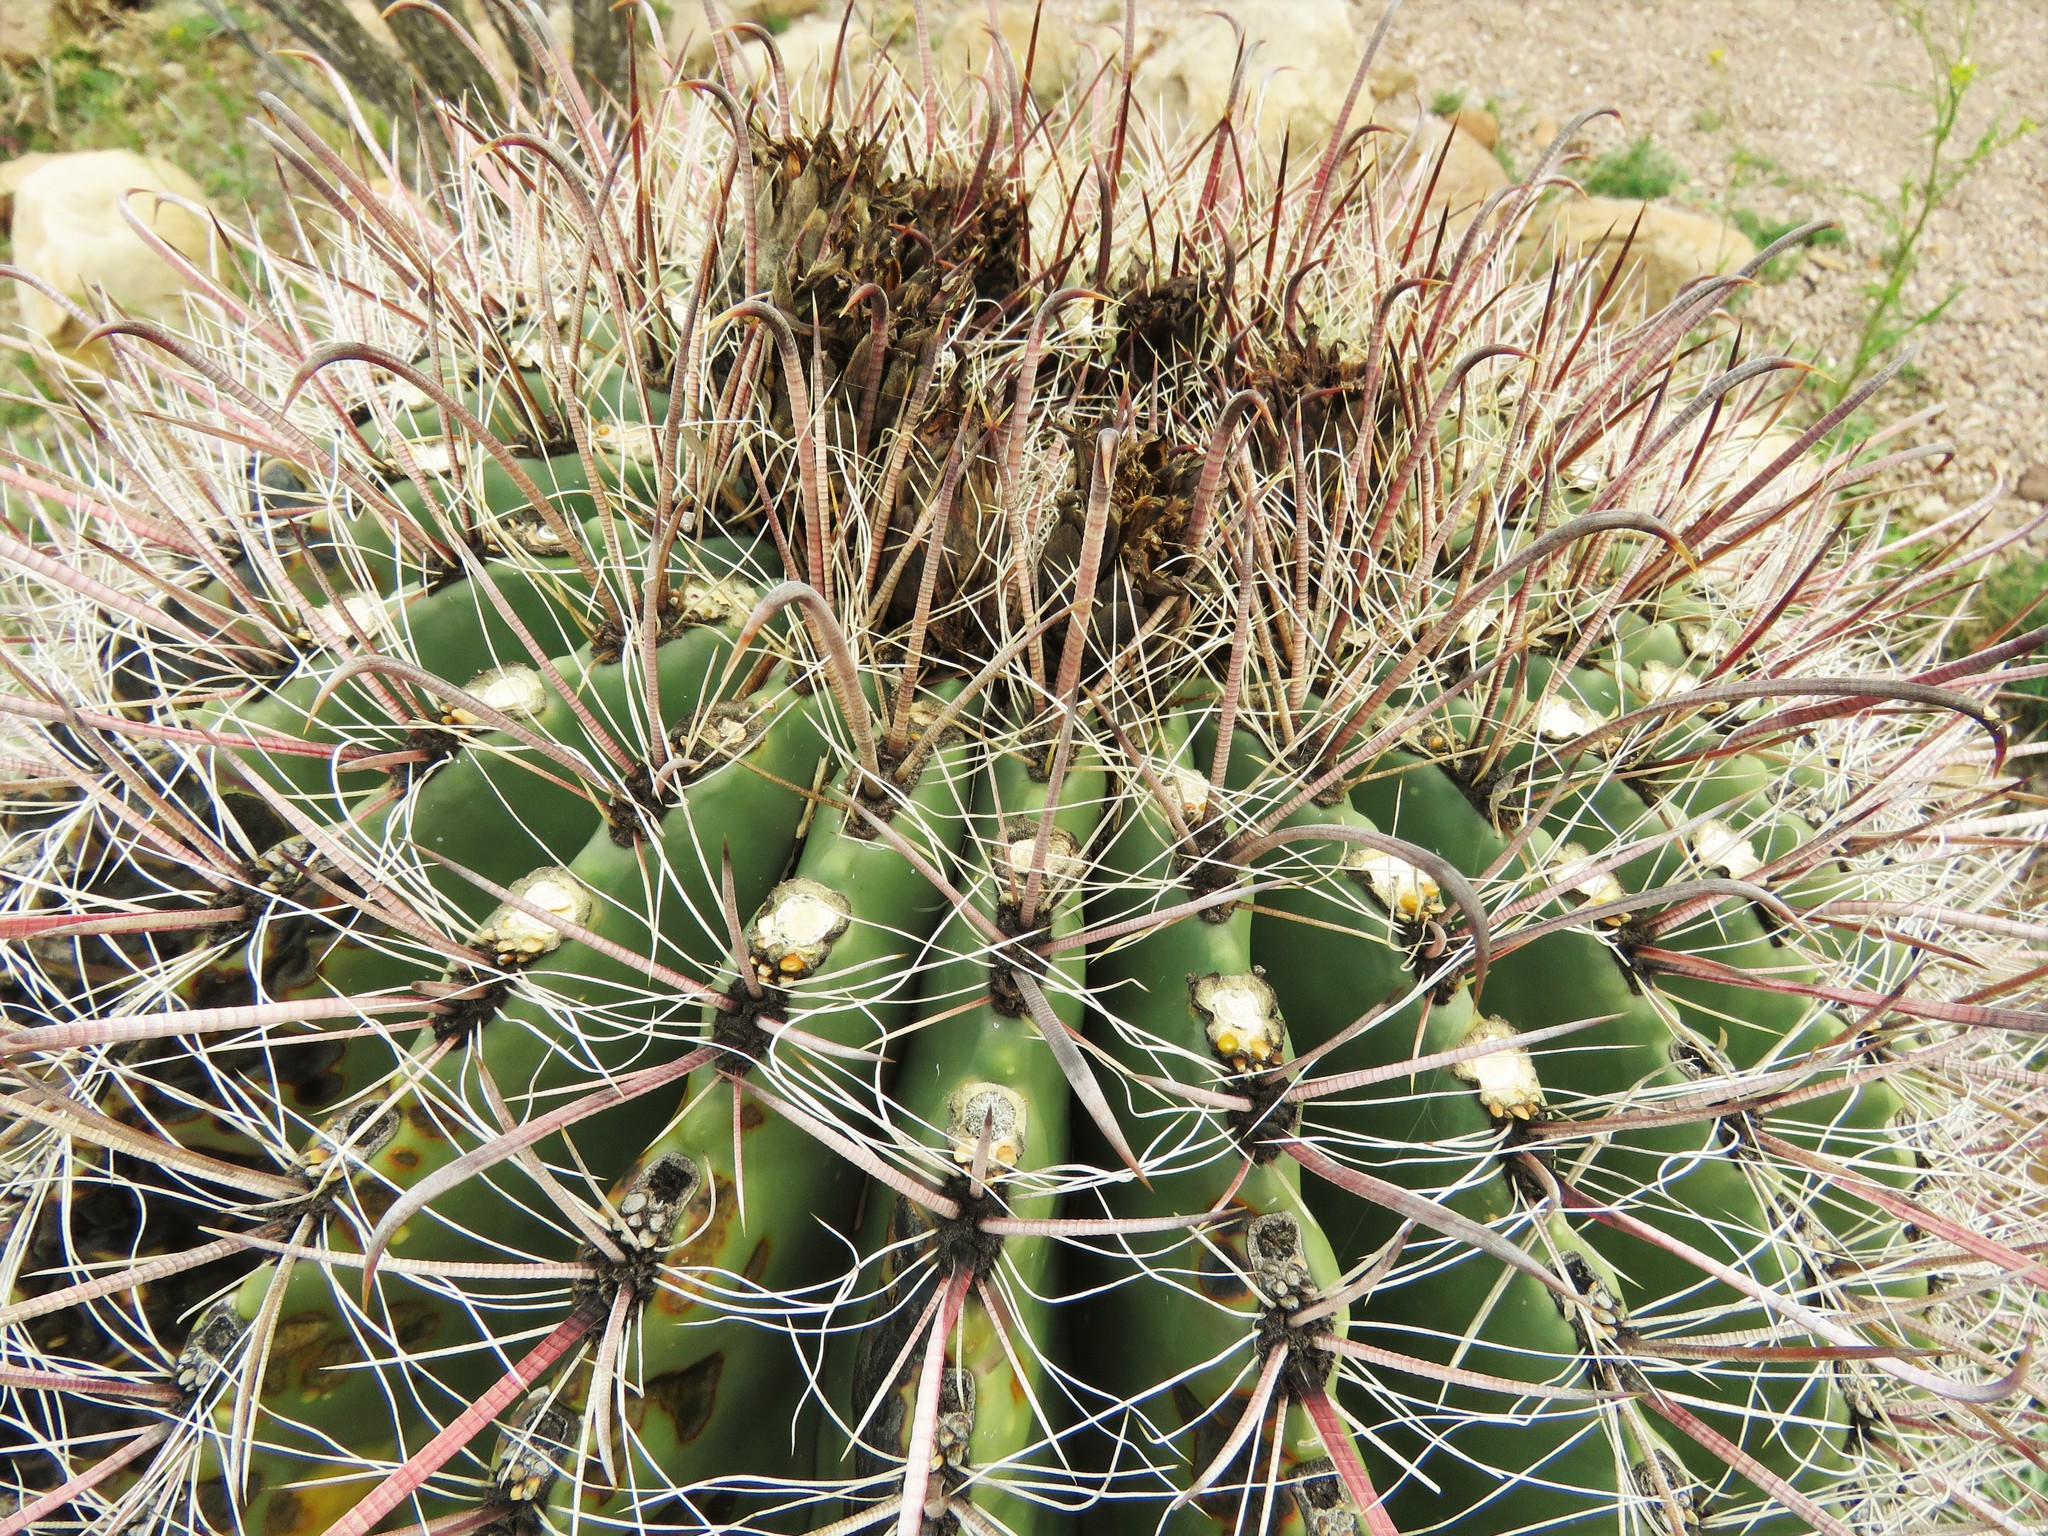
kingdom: Plantae
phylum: Tracheophyta
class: Magnoliopsida
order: Caryophyllales
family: Cactaceae
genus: Ferocactus
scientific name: Ferocactus wislizeni
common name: Candy barrel cactus
